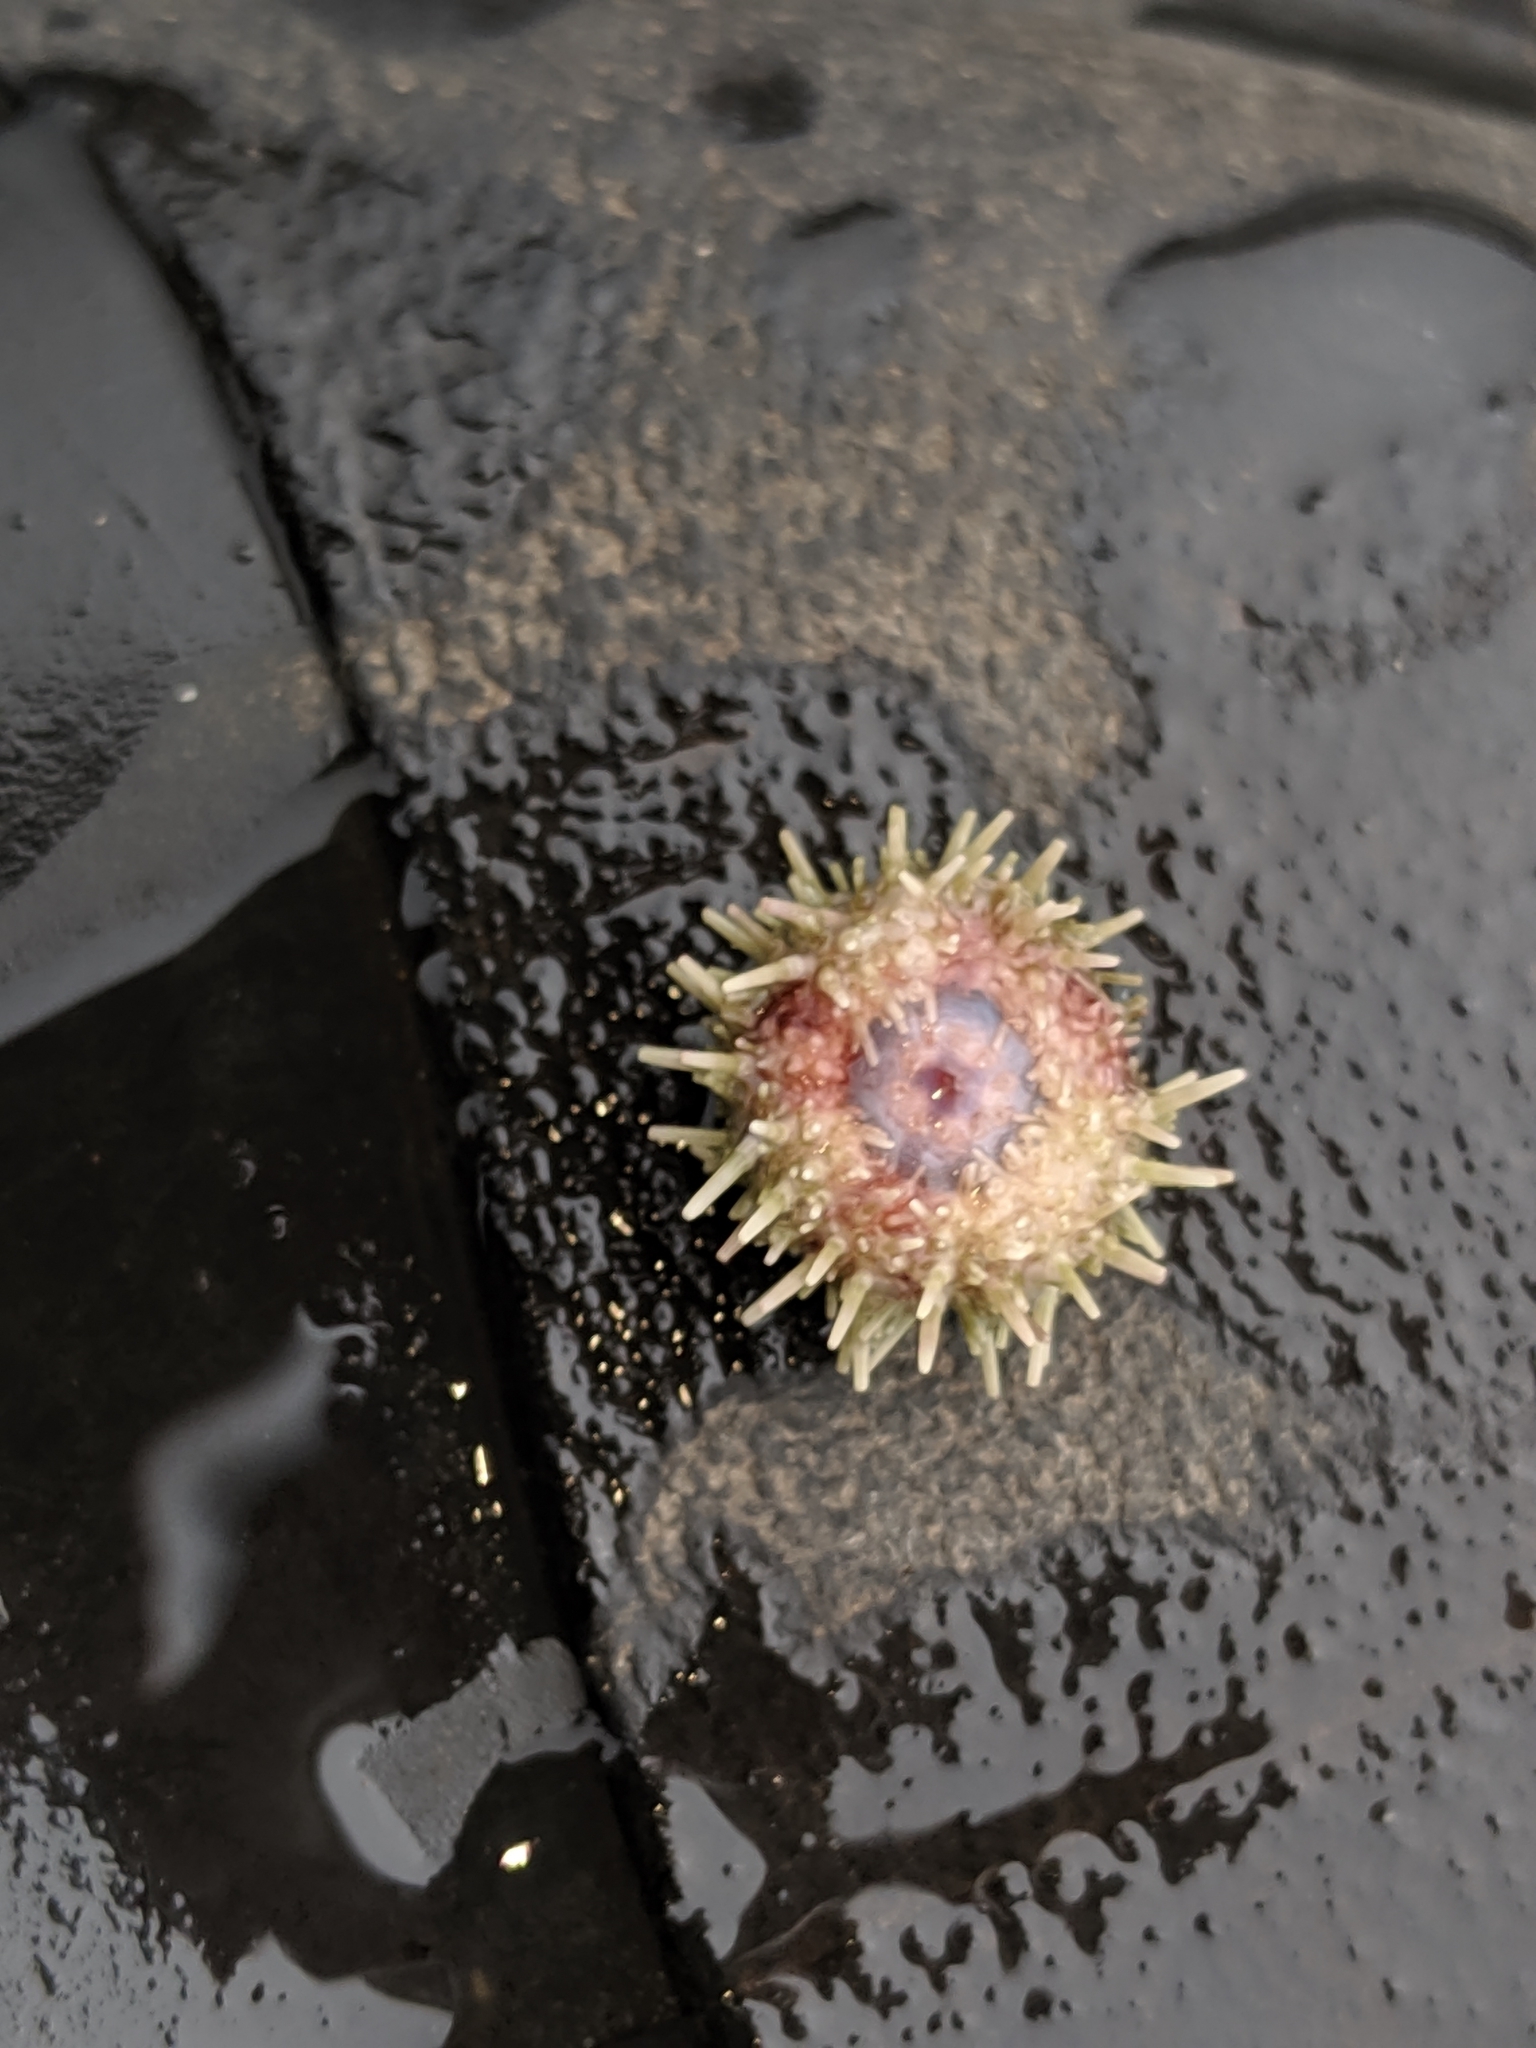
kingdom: Animalia
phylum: Echinodermata
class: Echinoidea
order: Camarodonta
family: Strongylocentrotidae
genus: Strongylocentrotus
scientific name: Strongylocentrotus purpuratus
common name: Purple sea urchin
